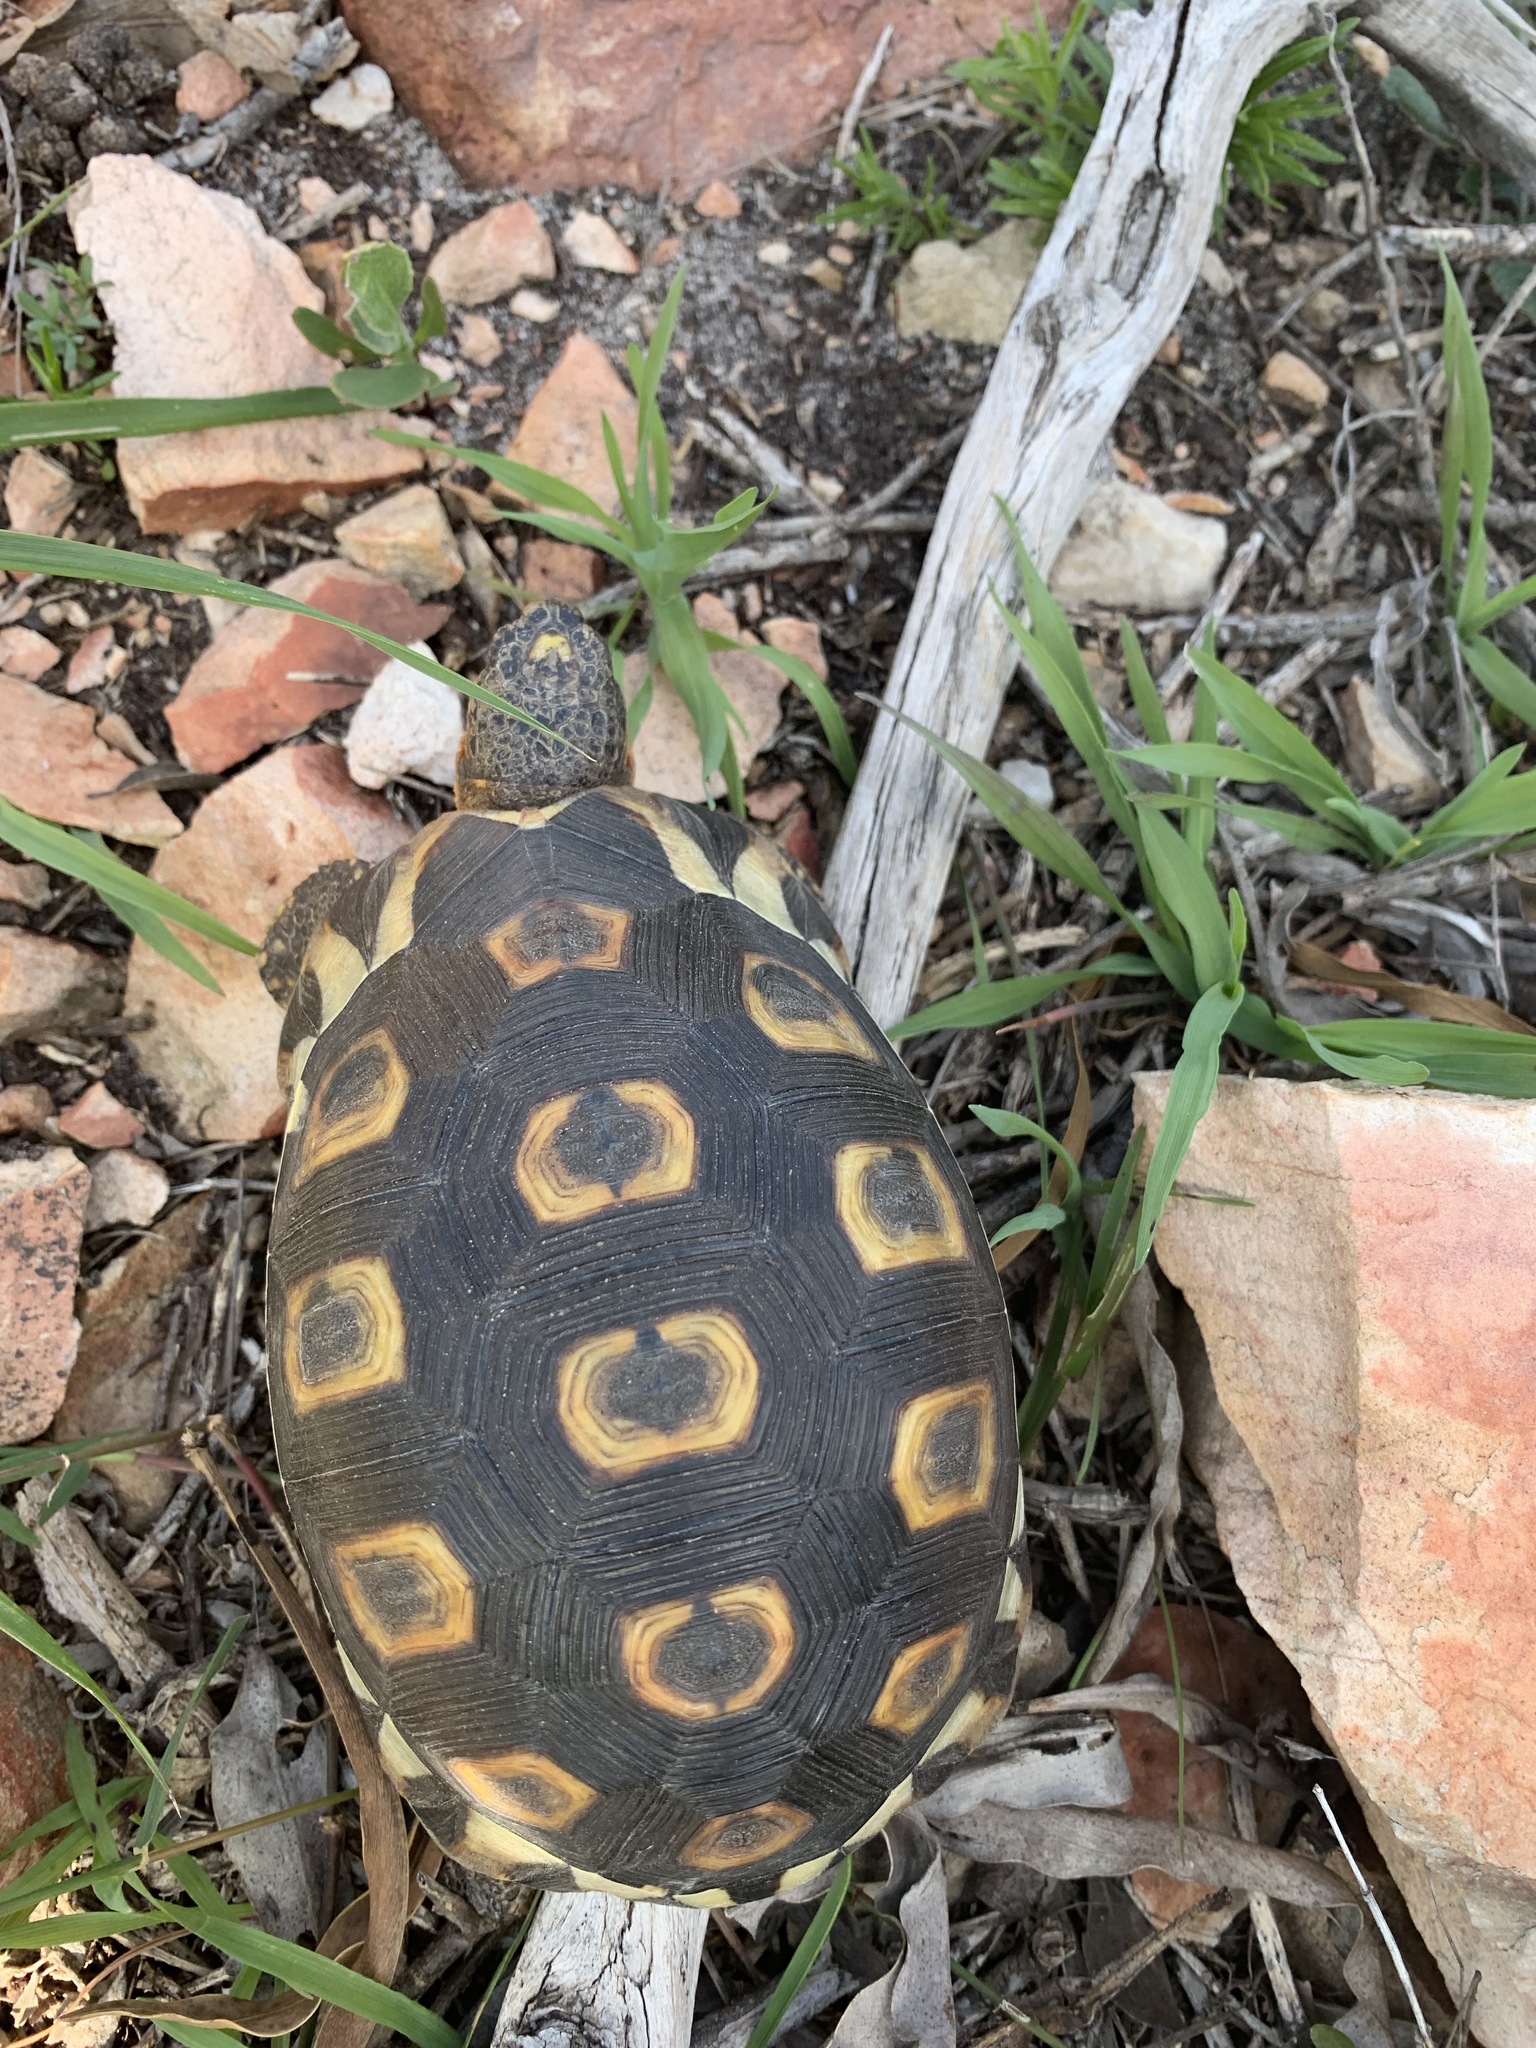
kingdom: Animalia
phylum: Chordata
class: Testudines
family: Testudinidae
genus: Chersina
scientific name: Chersina angulata
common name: South african bowsprit tortoise
